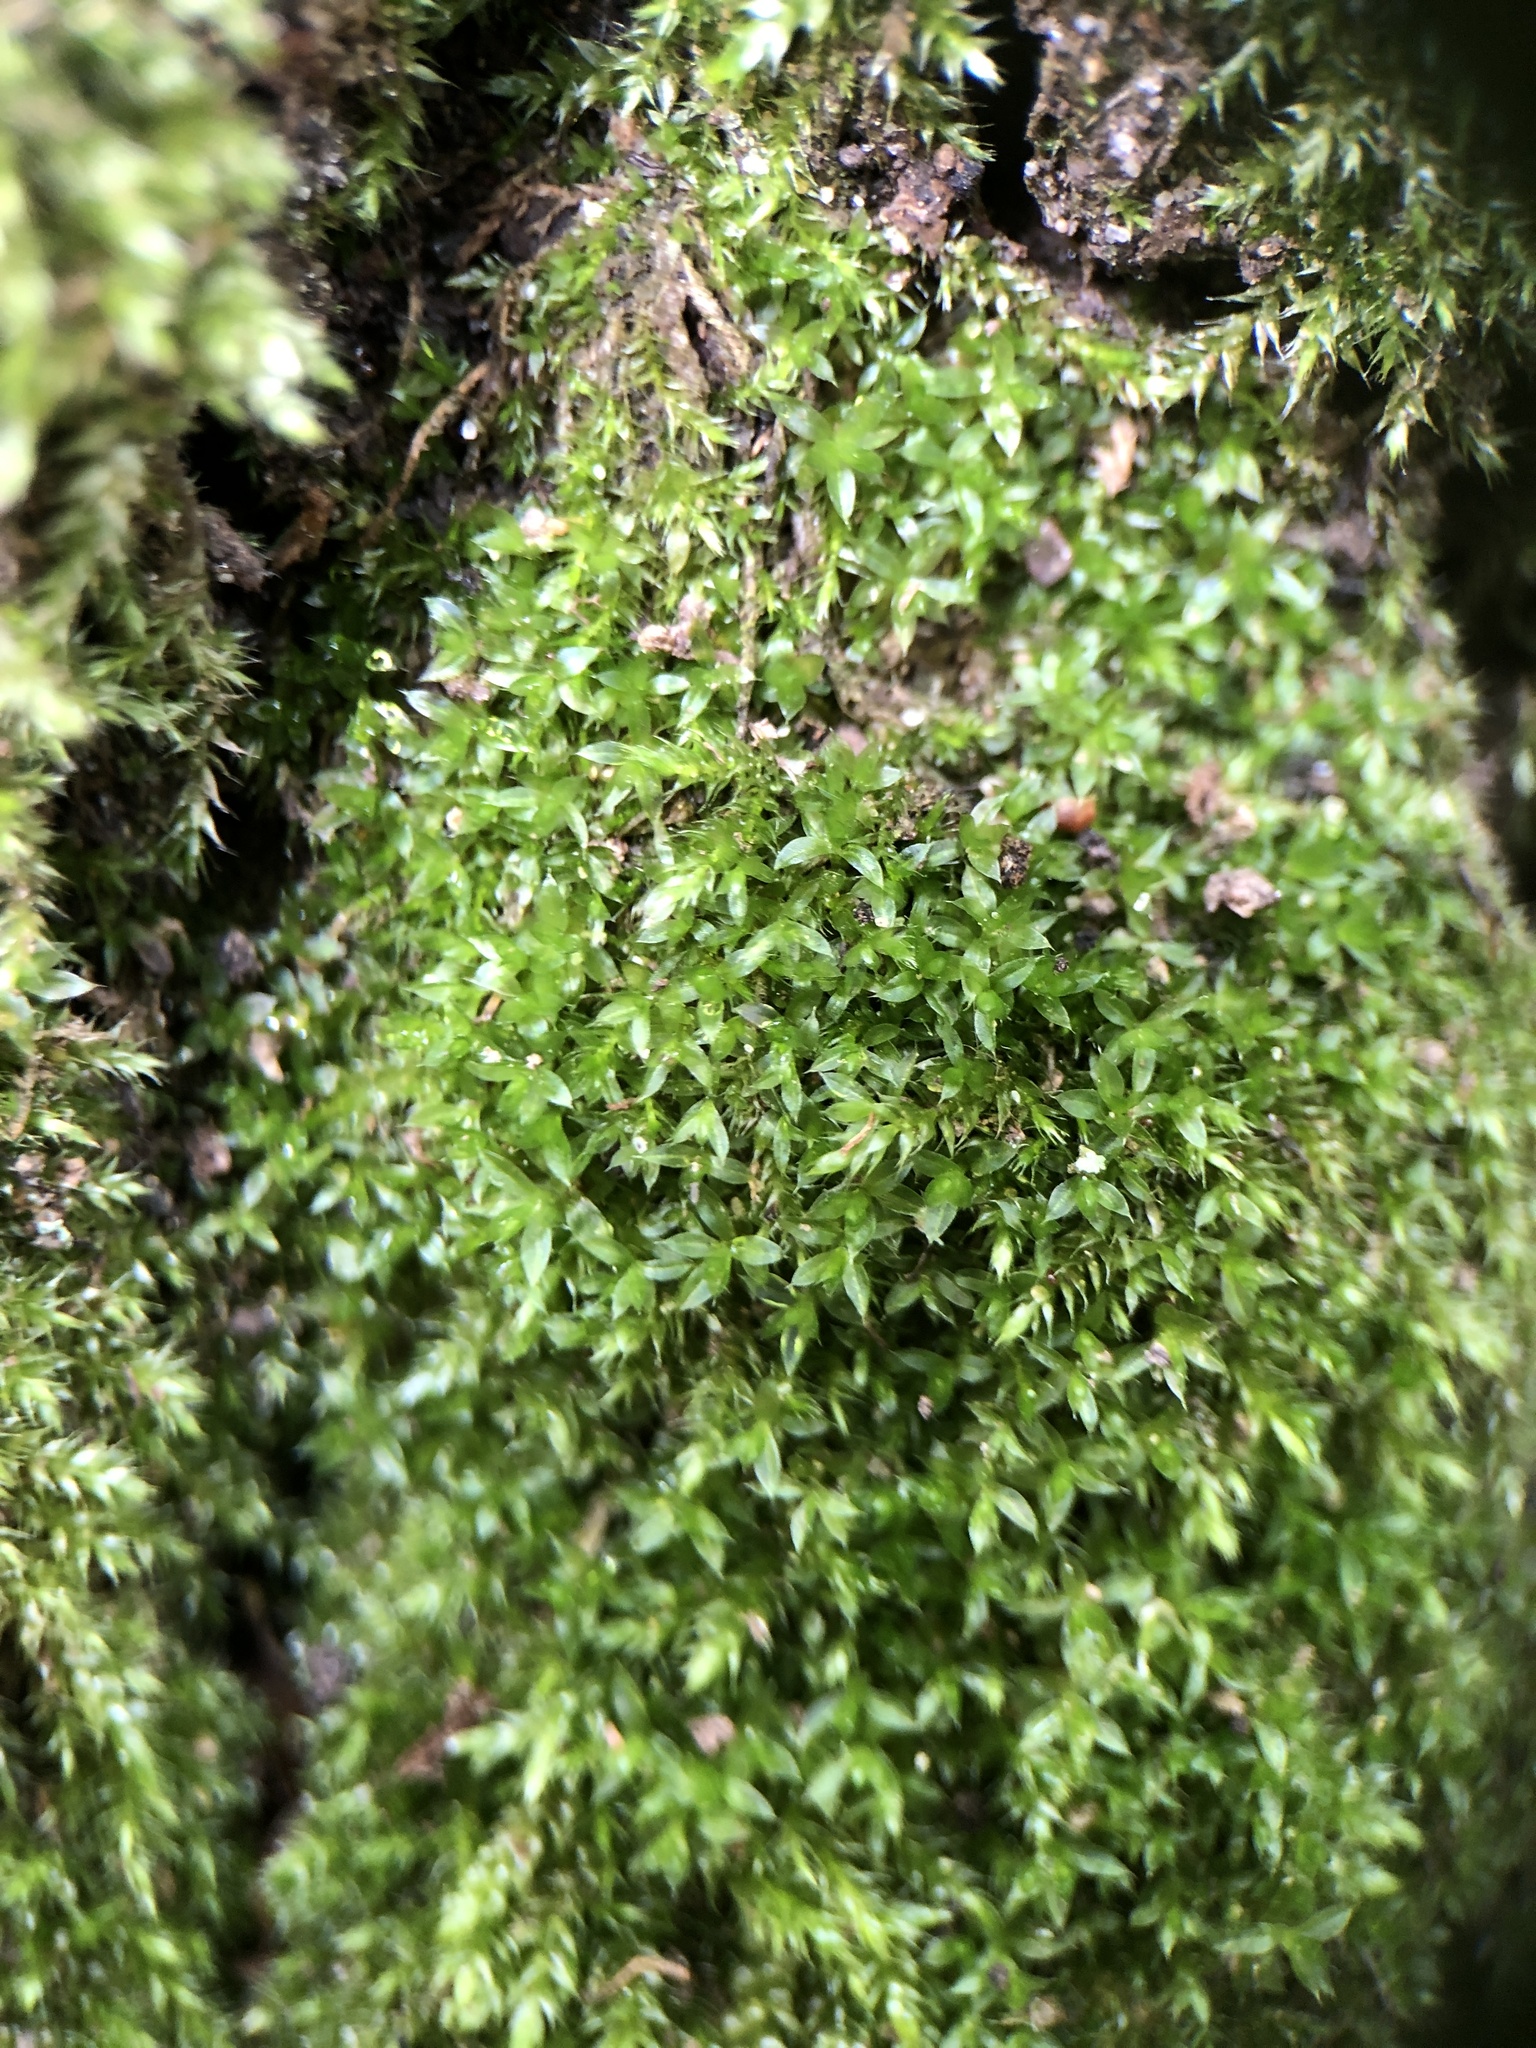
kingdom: Plantae
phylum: Bryophyta
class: Bryopsida
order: Bryales
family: Bryaceae
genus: Rosulabryum
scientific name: Rosulabryum moravicum
